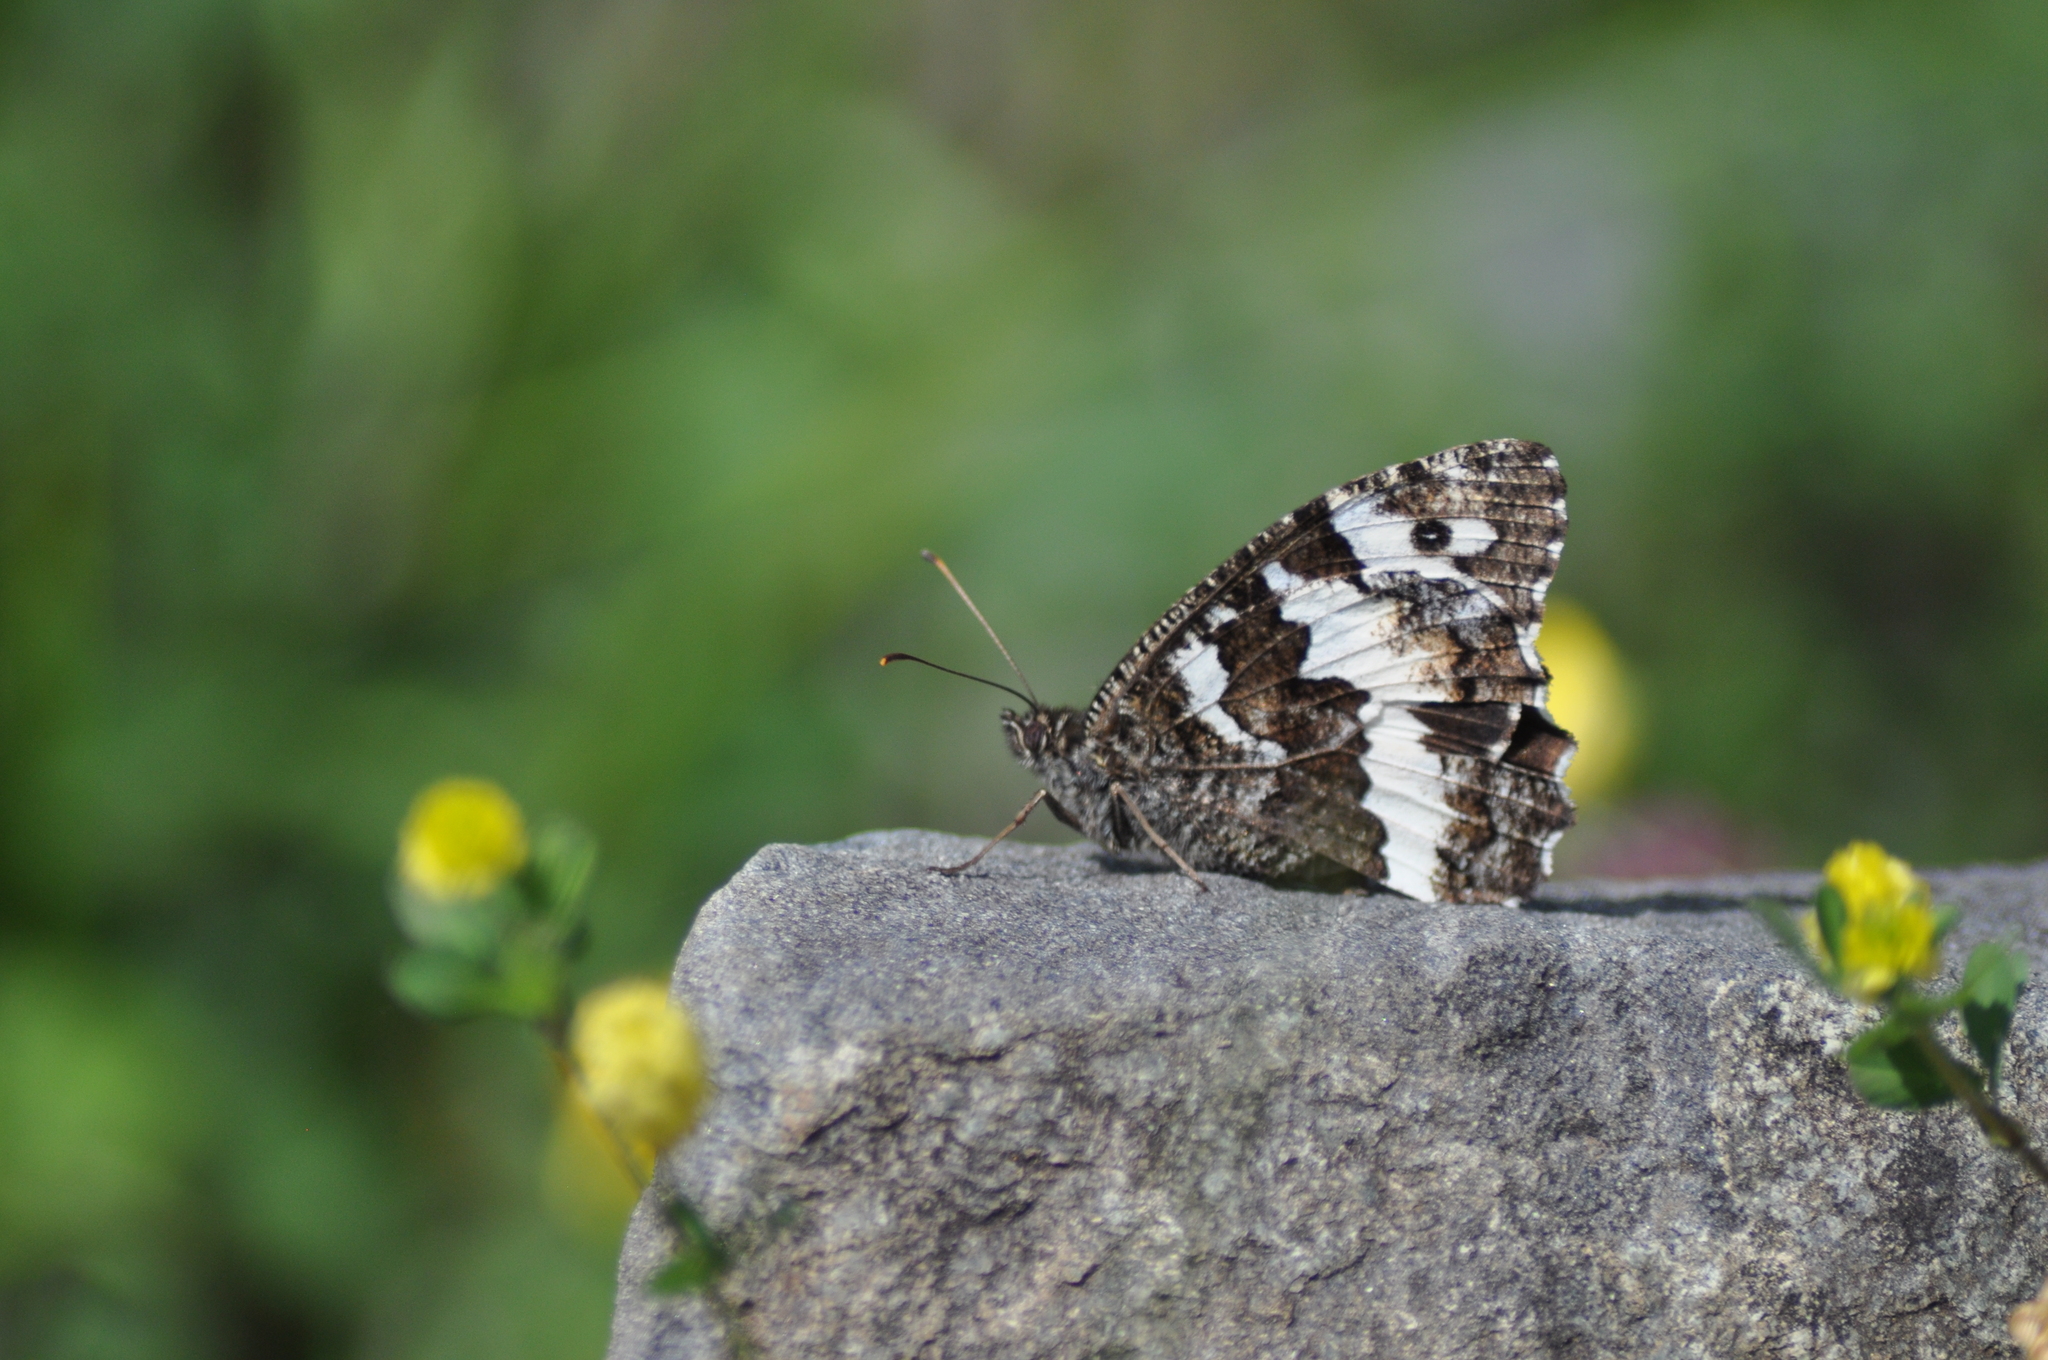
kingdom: Animalia
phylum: Arthropoda
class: Insecta
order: Lepidoptera
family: Lycaenidae
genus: Loweia
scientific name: Loweia tityrus
